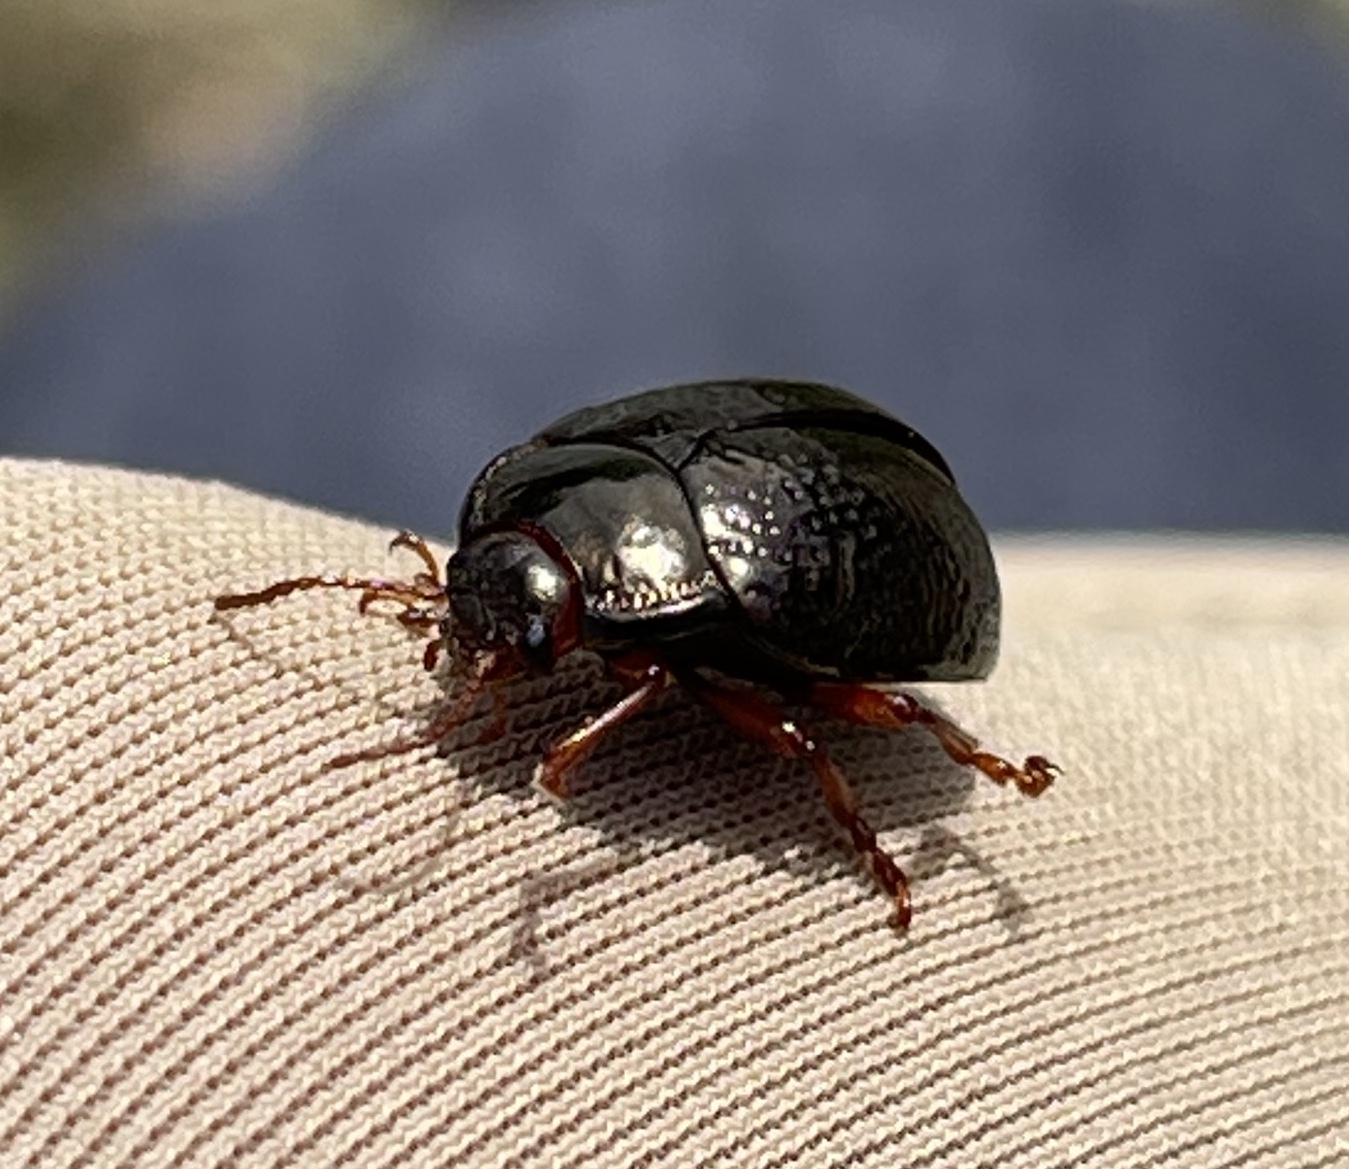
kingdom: Animalia
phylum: Arthropoda
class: Insecta
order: Coleoptera
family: Chrysomelidae
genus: Chrysolina
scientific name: Chrysolina bankii
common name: Leaf beetle
